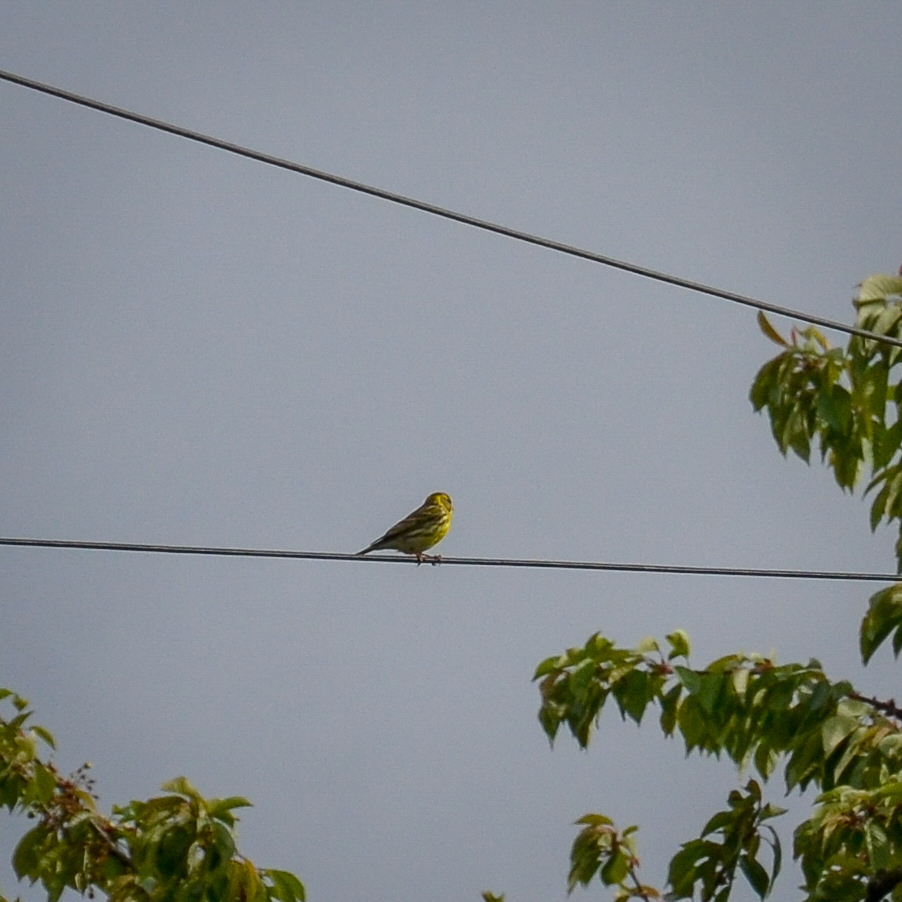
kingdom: Animalia
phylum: Chordata
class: Aves
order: Passeriformes
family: Fringillidae
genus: Serinus
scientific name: Serinus serinus
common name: European serin
